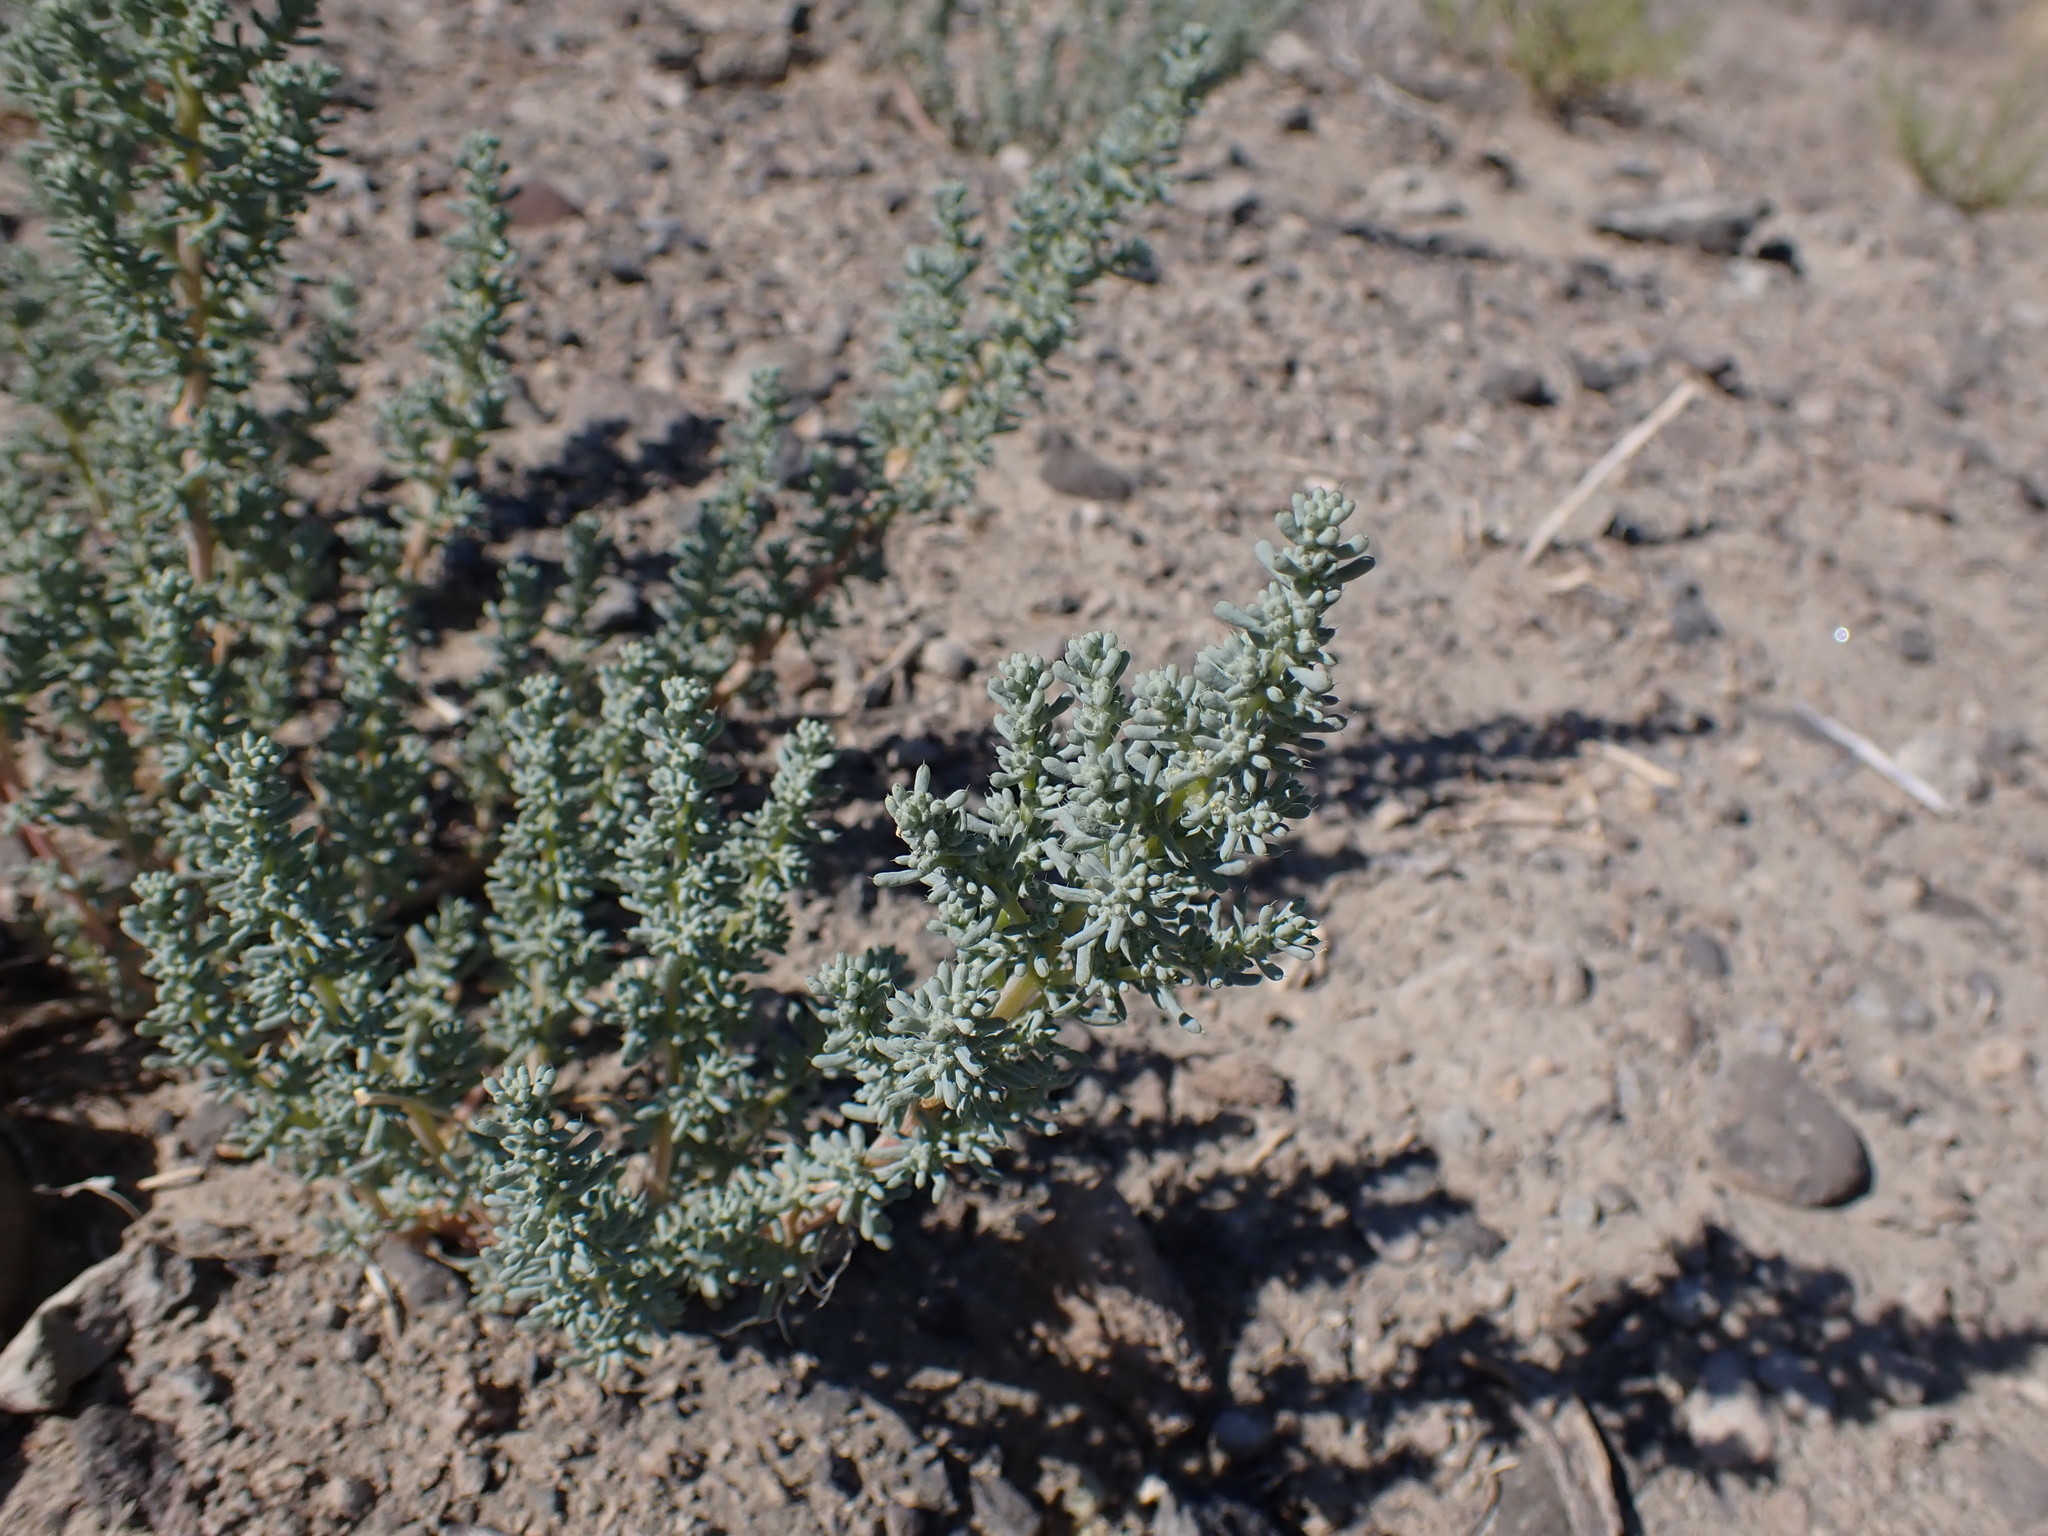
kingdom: Plantae
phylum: Tracheophyta
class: Magnoliopsida
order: Caryophyllales
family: Amaranthaceae
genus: Halogeton
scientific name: Halogeton glomeratus
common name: Saltlover
